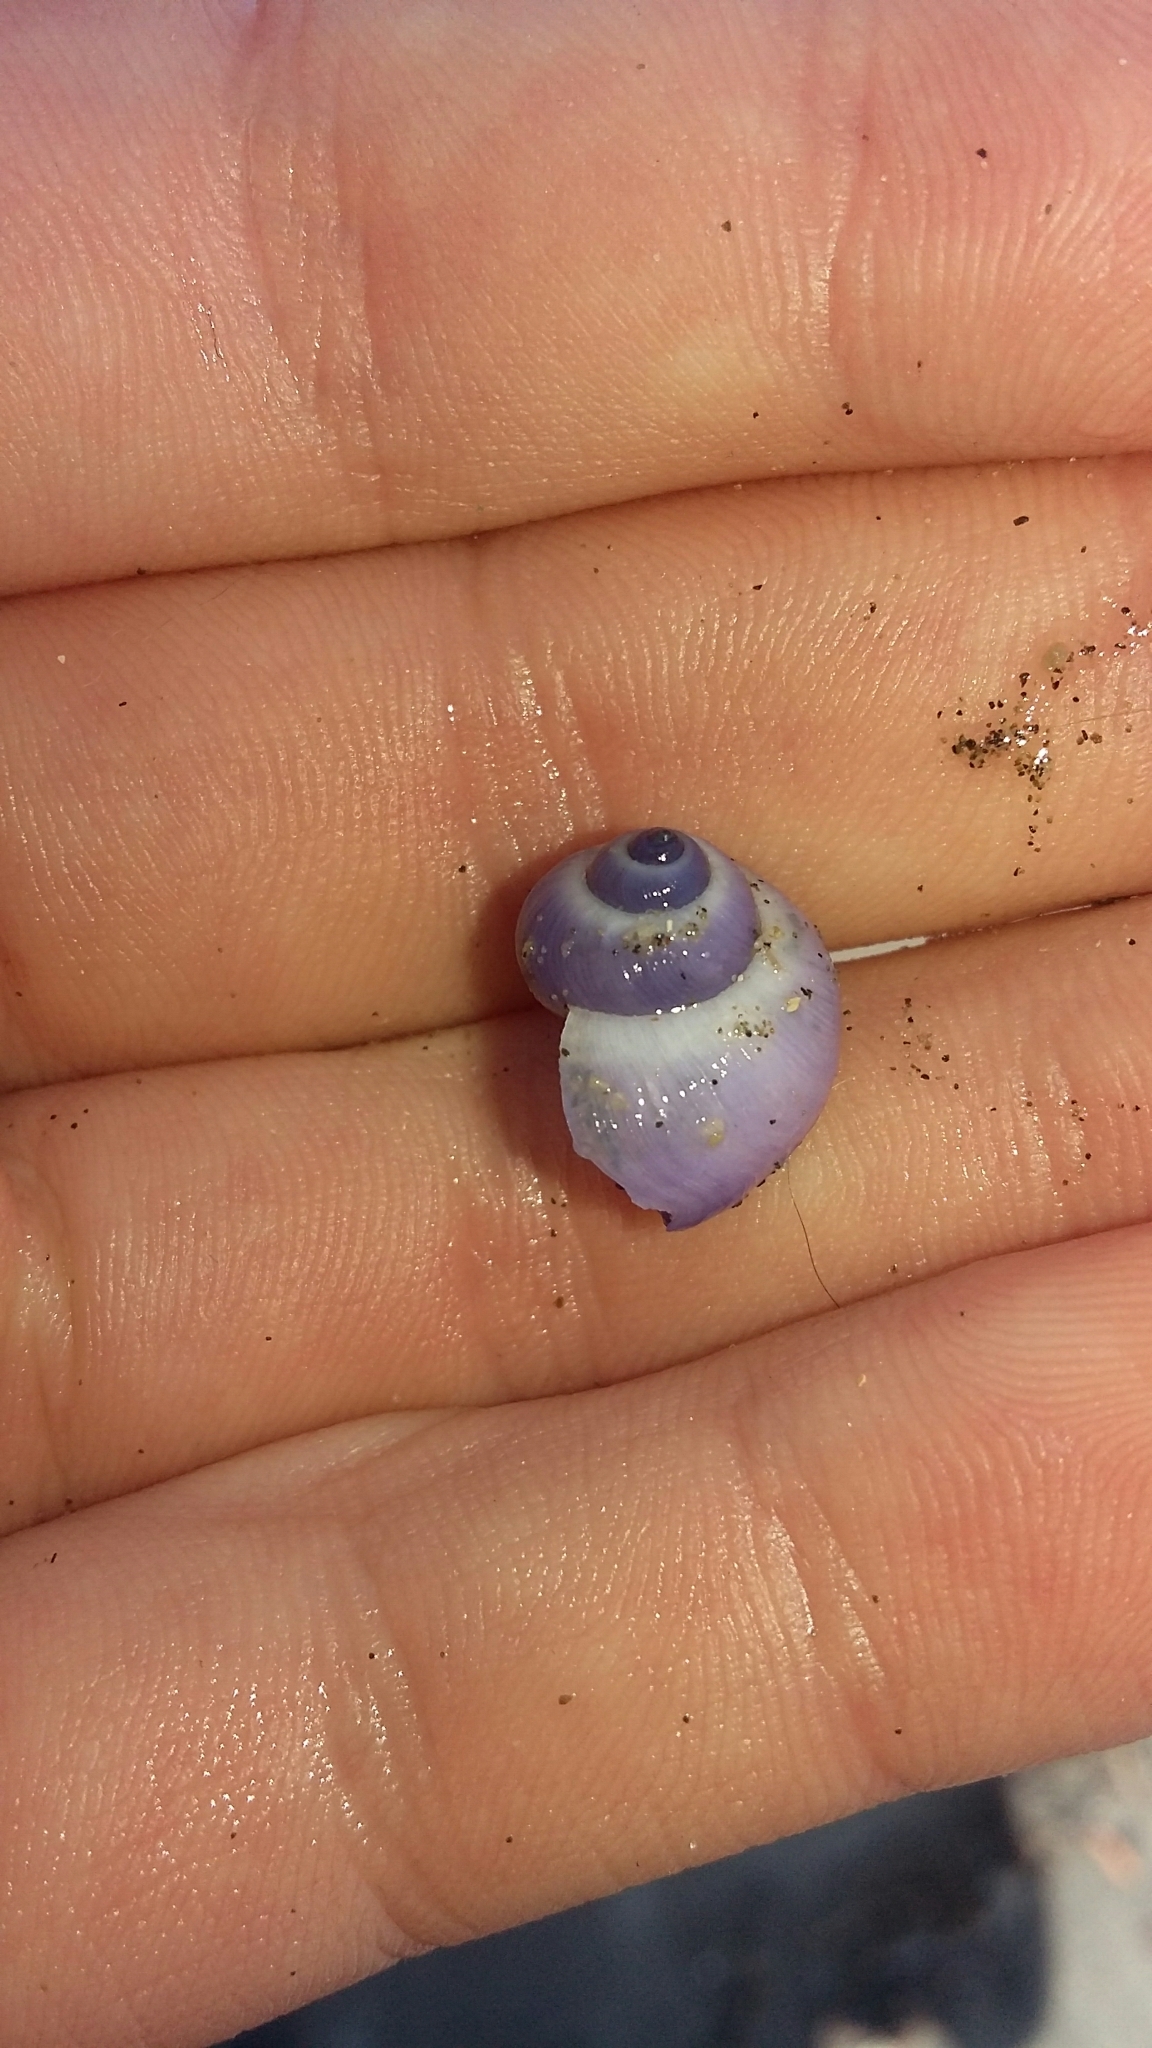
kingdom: Animalia
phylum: Mollusca
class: Gastropoda
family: Epitoniidae
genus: Janthina
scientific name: Janthina exigua
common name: Dwarf janthina
